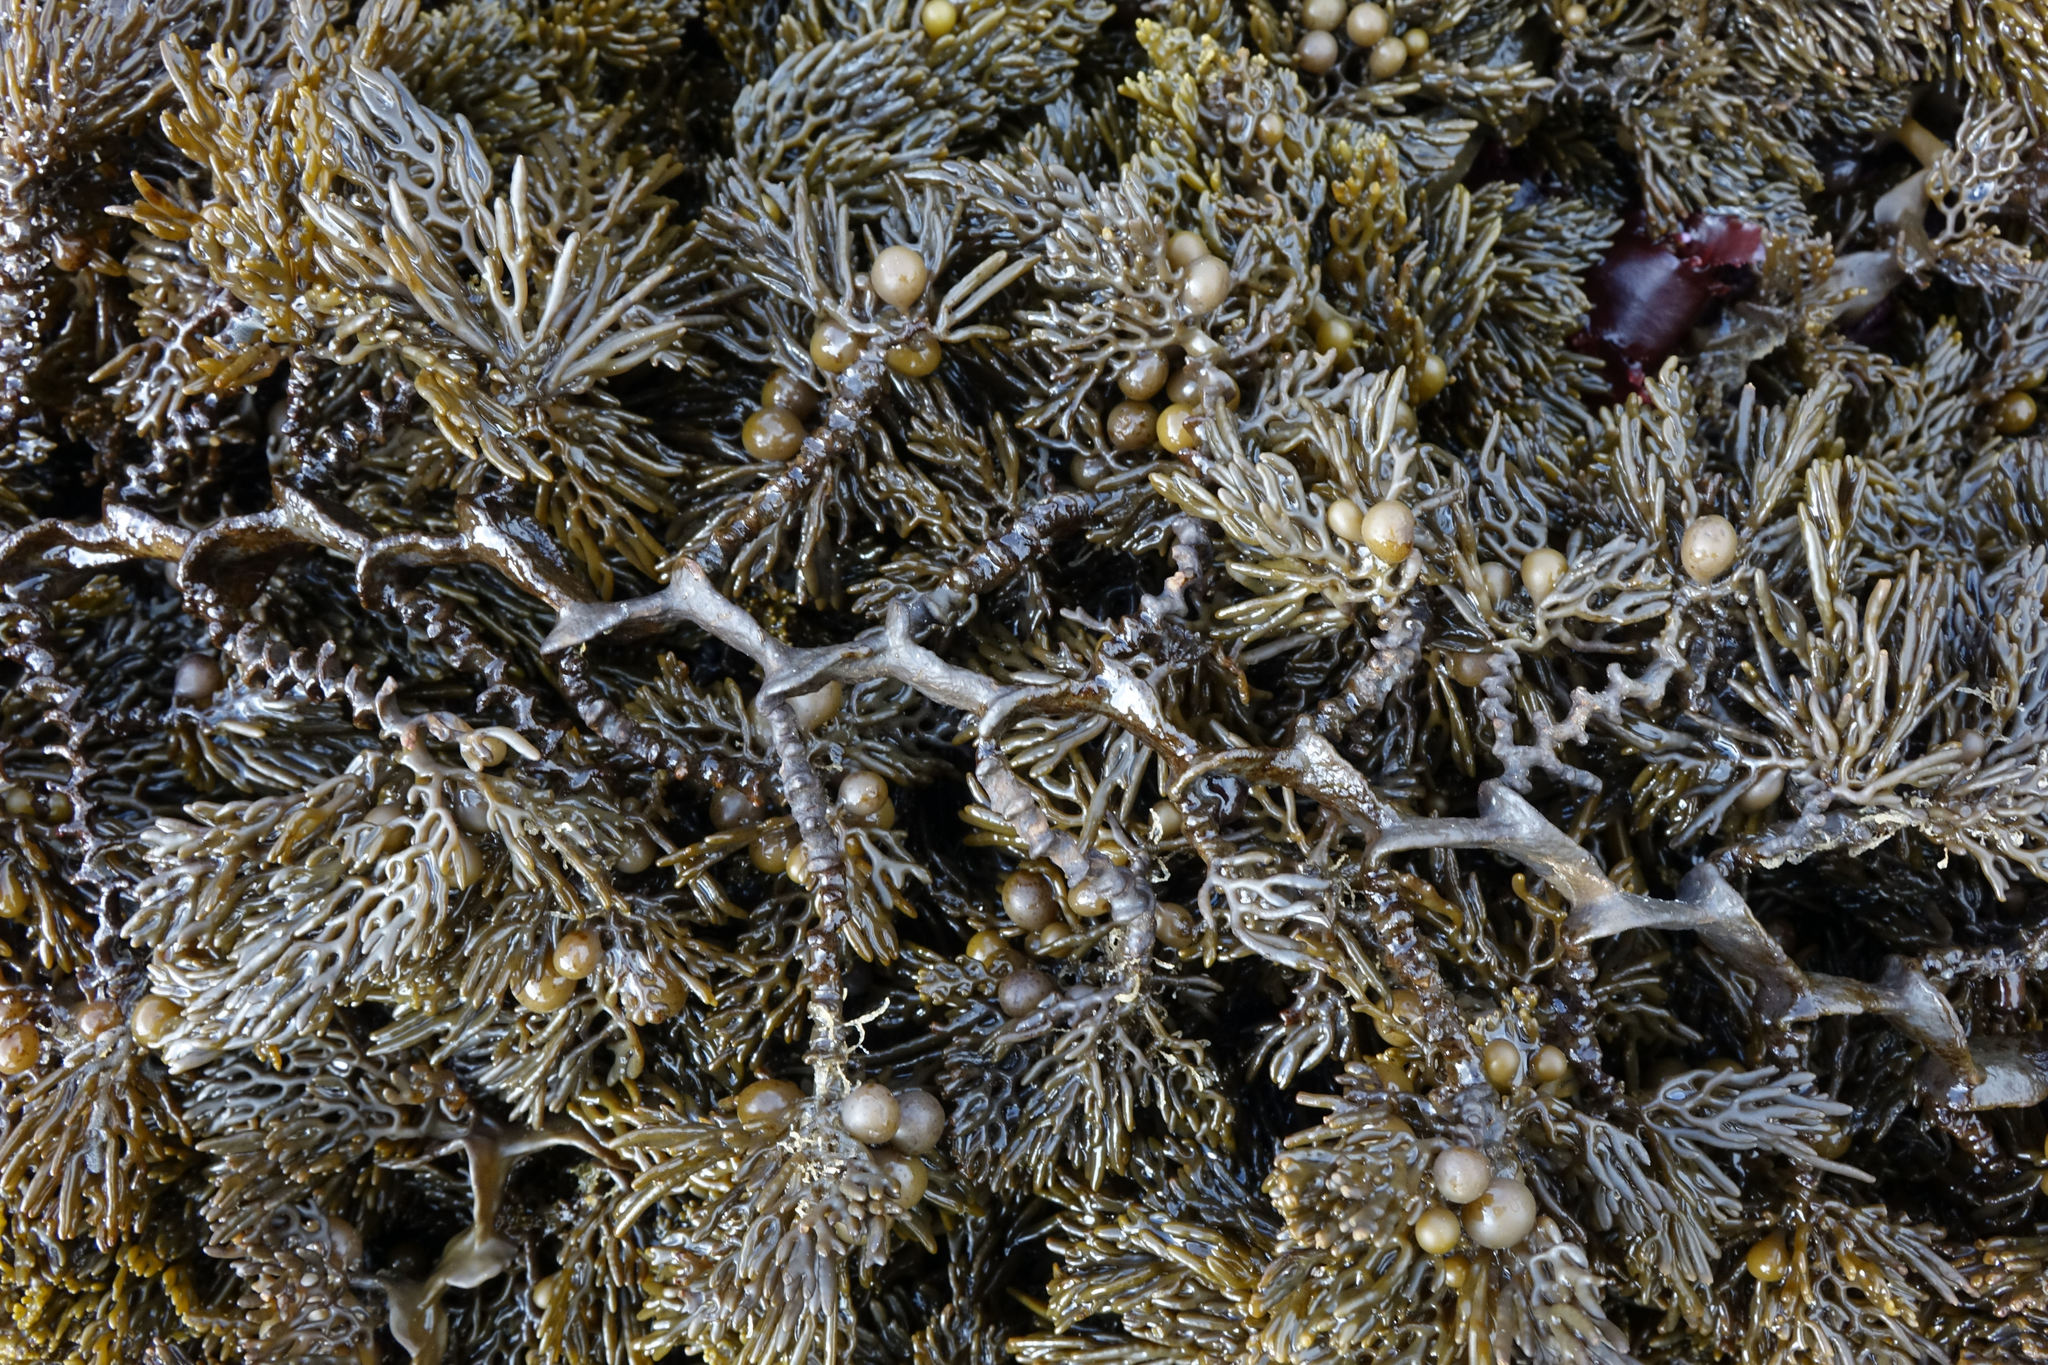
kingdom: Chromista
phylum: Ochrophyta
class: Phaeophyceae
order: Fucales
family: Sargassaceae
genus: Cystophora
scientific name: Cystophora scalaris
